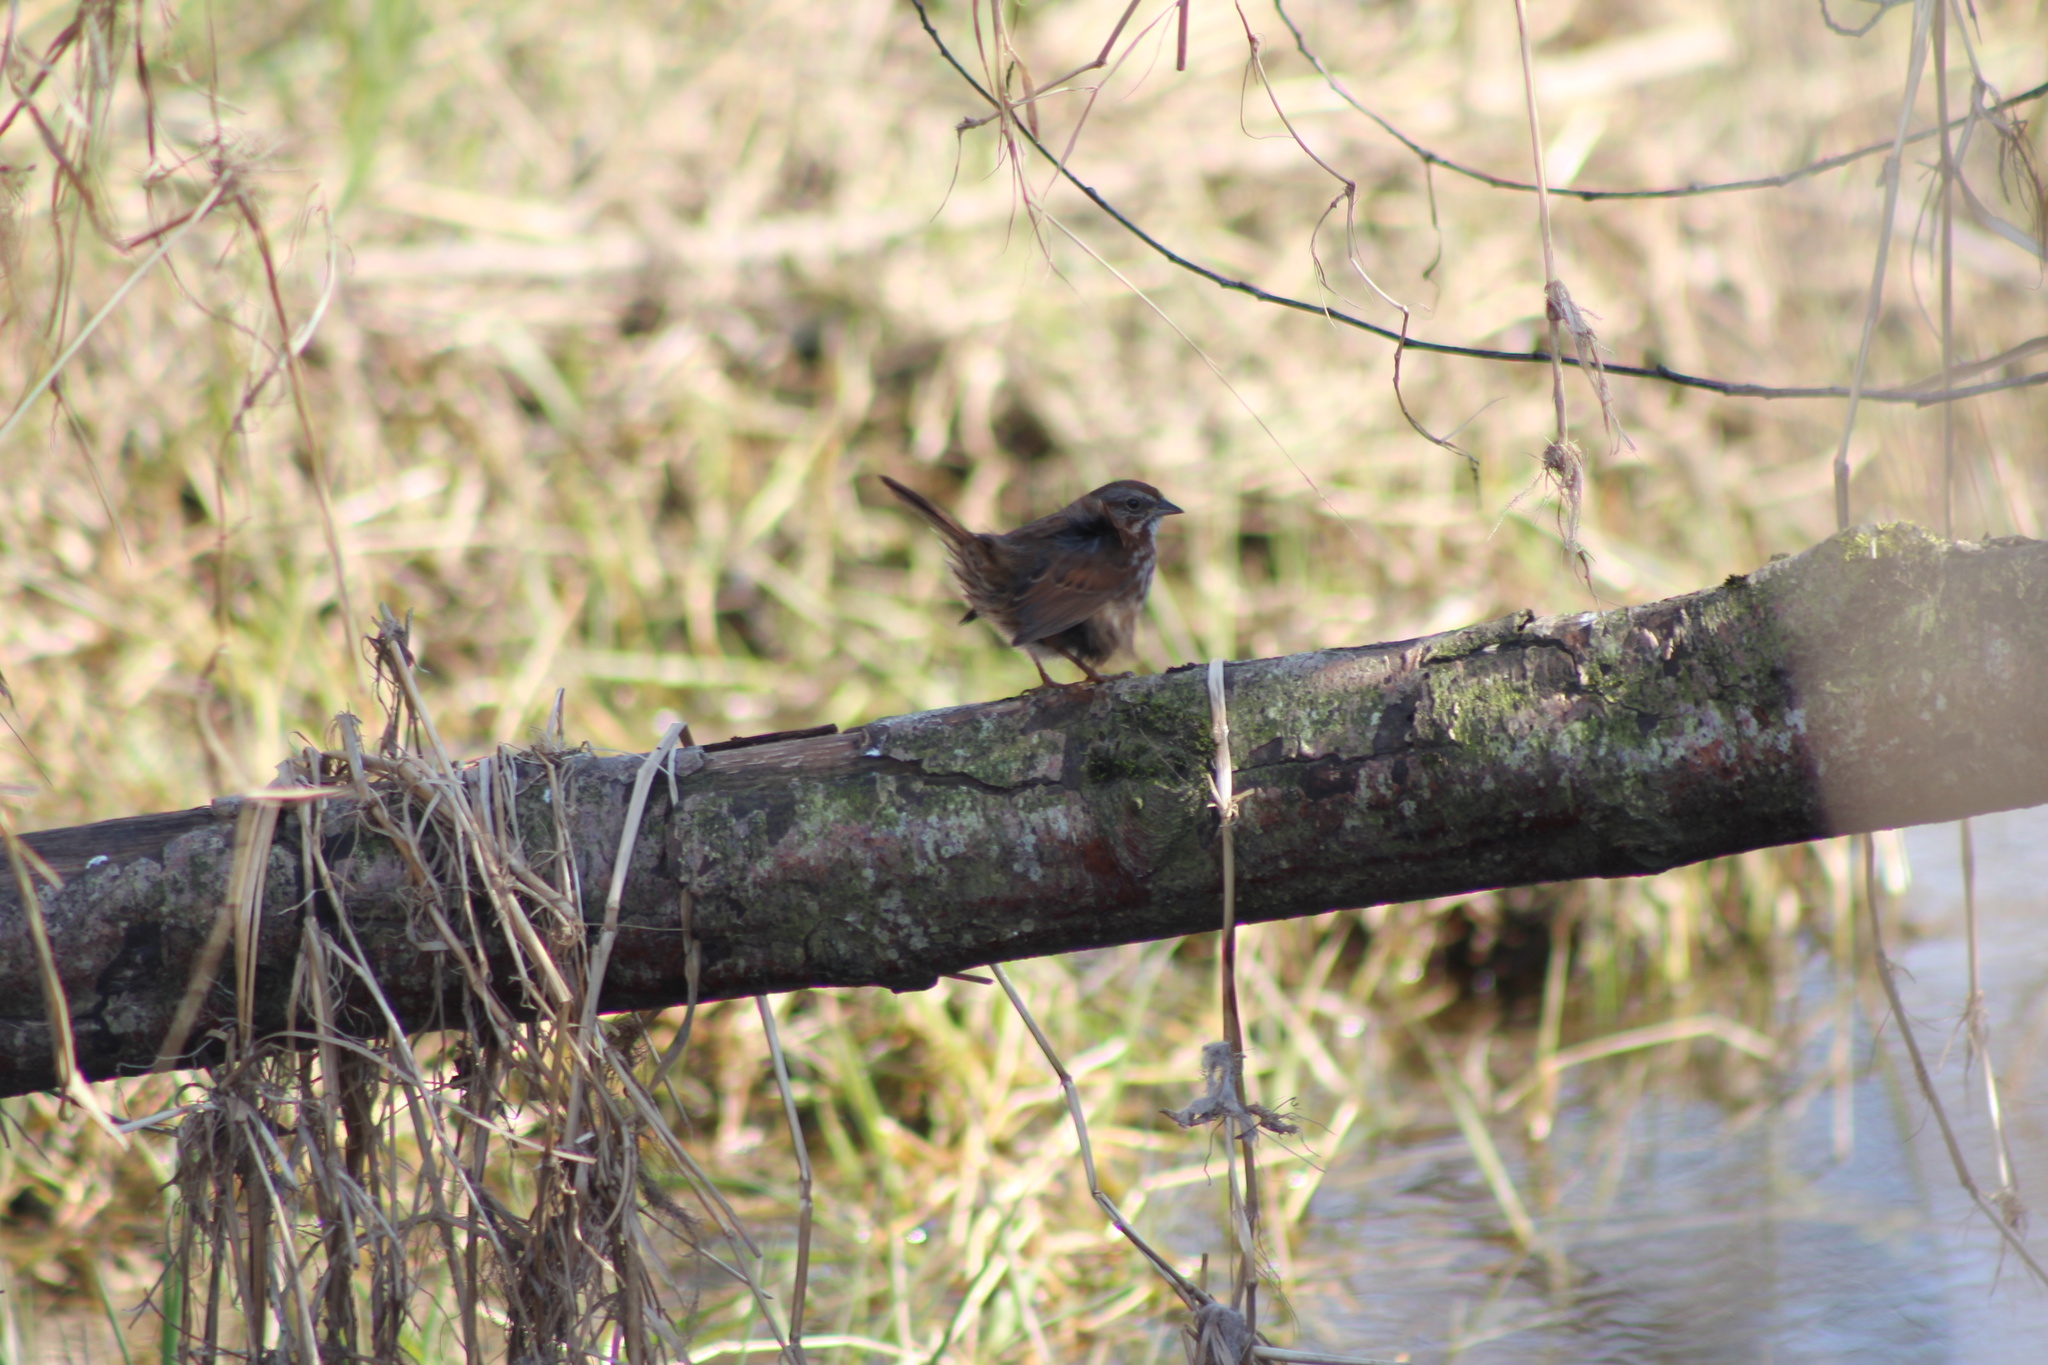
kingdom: Animalia
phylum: Chordata
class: Aves
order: Passeriformes
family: Passerellidae
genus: Melospiza
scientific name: Melospiza melodia
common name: Song sparrow
